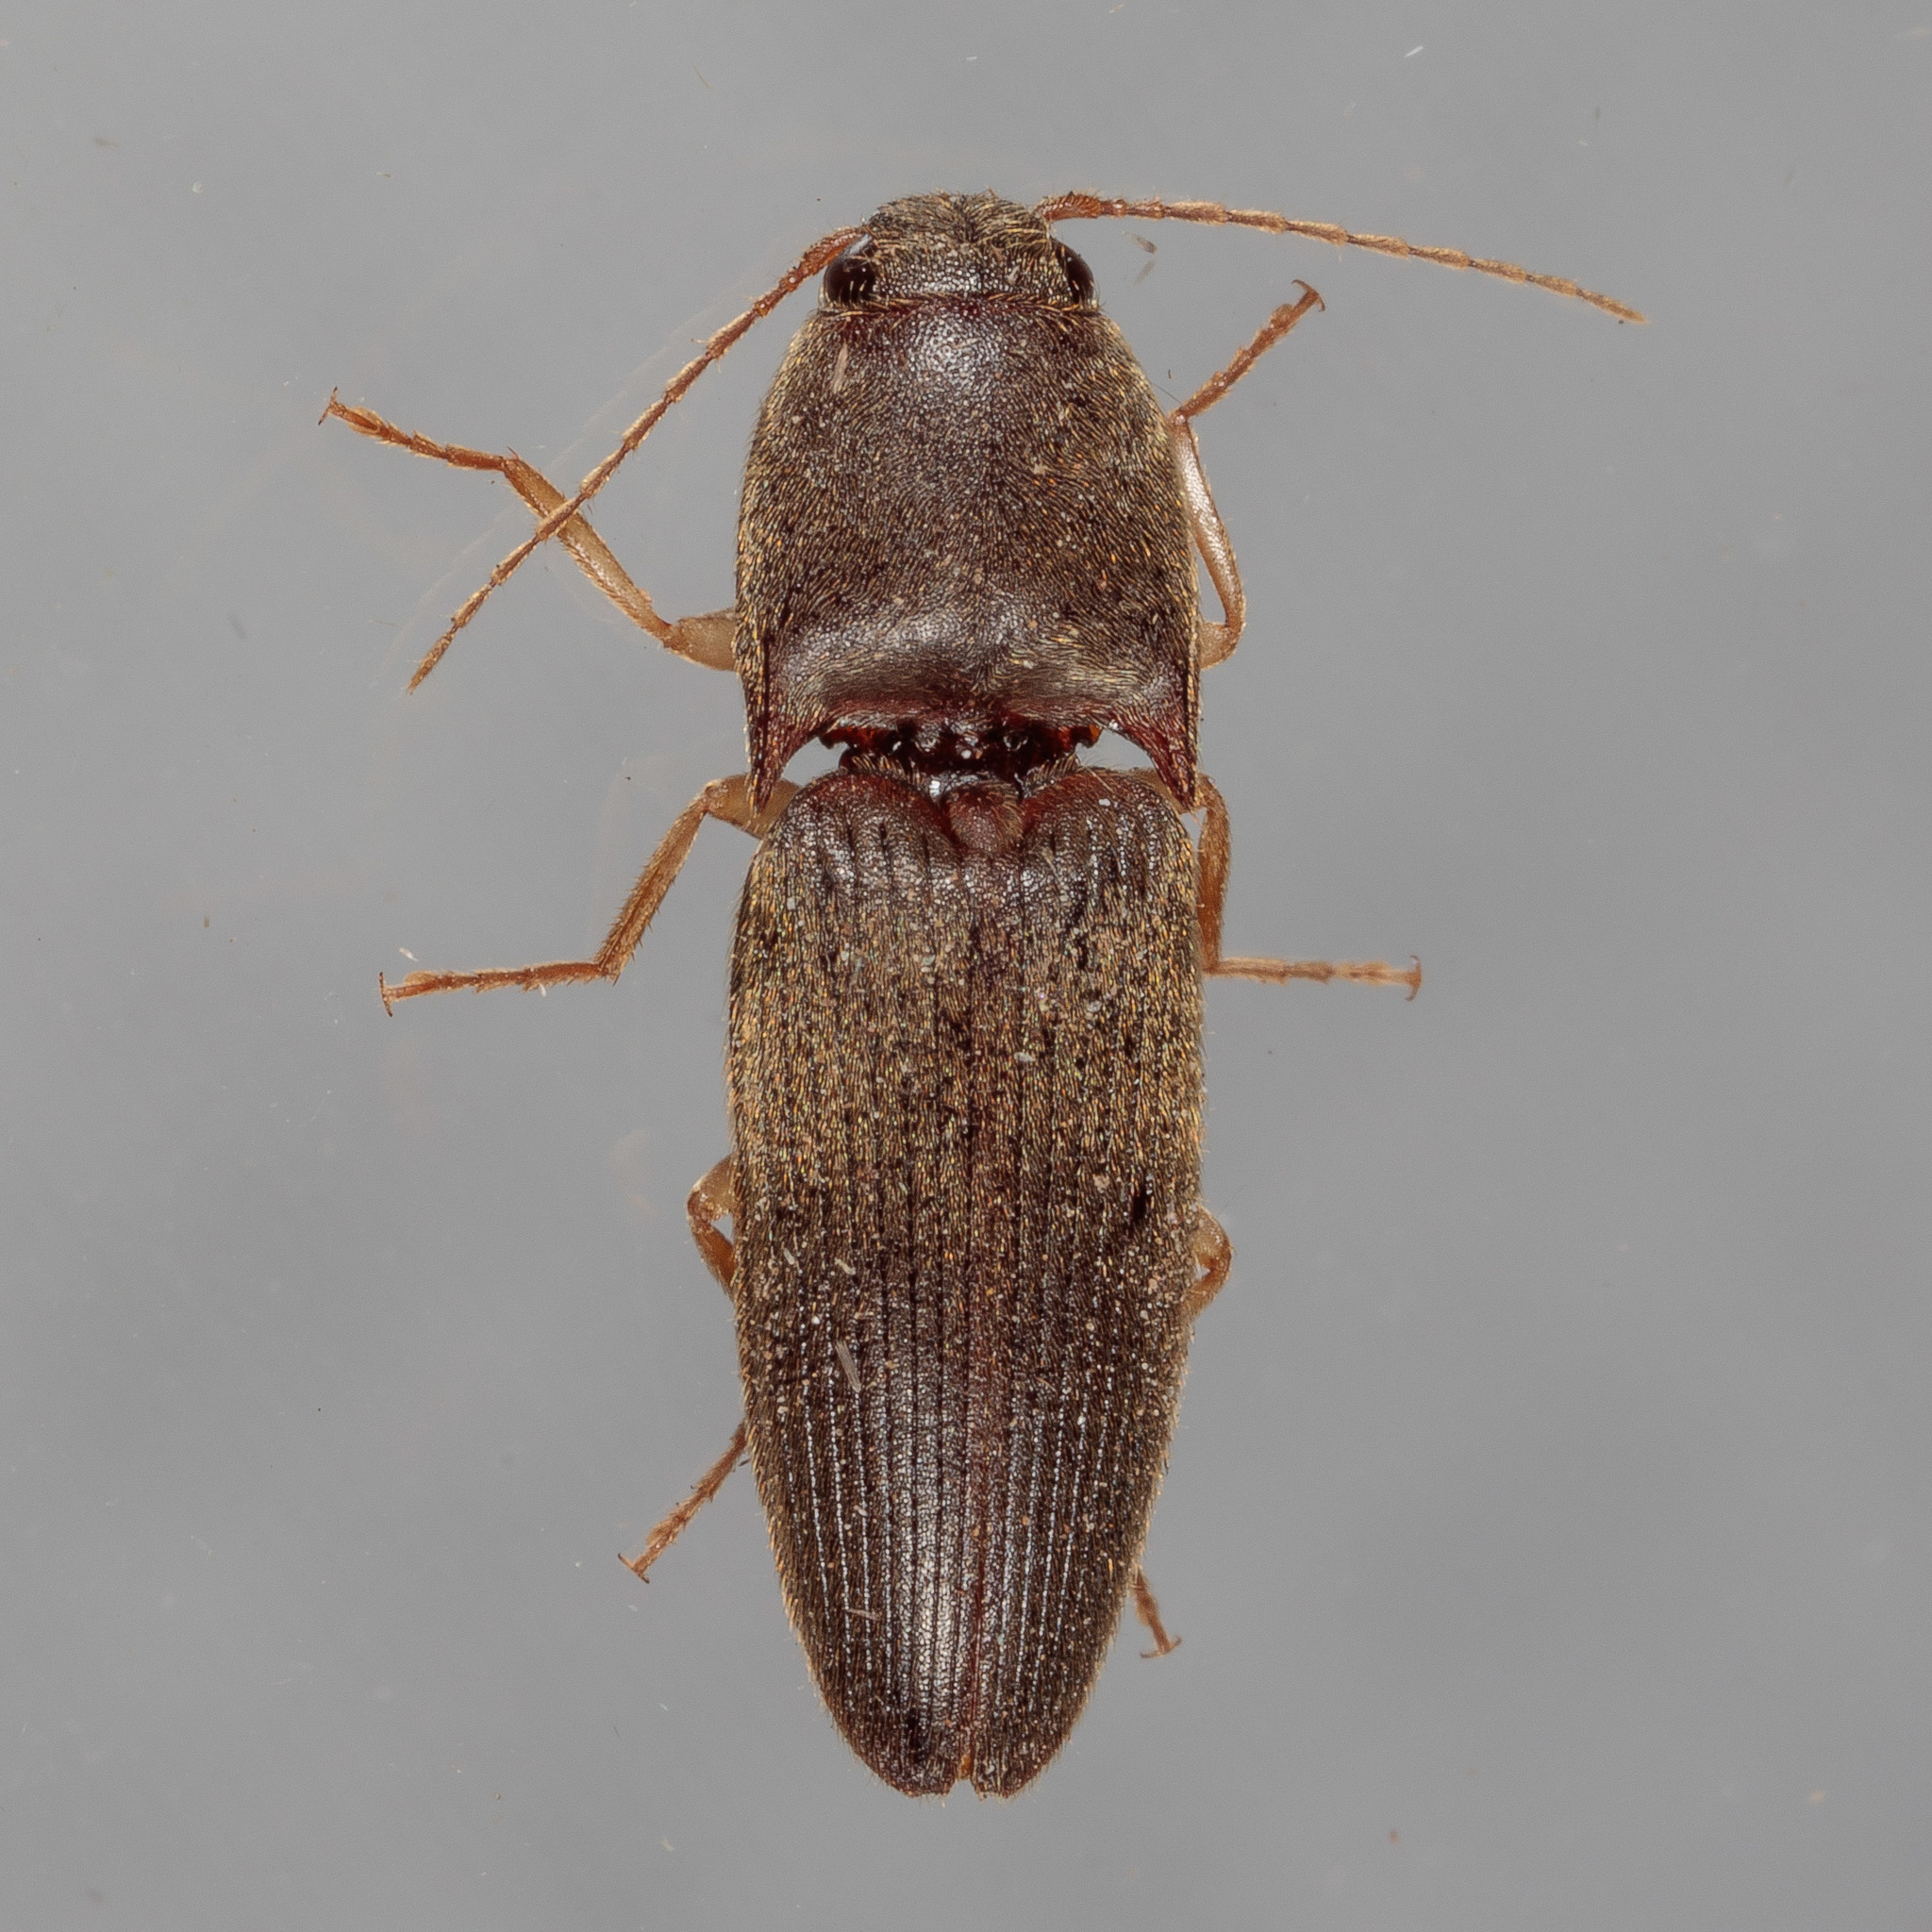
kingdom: Animalia
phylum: Arthropoda
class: Insecta
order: Coleoptera
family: Elateridae
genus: Conoderus
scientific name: Conoderus exsul
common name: Click beetle
